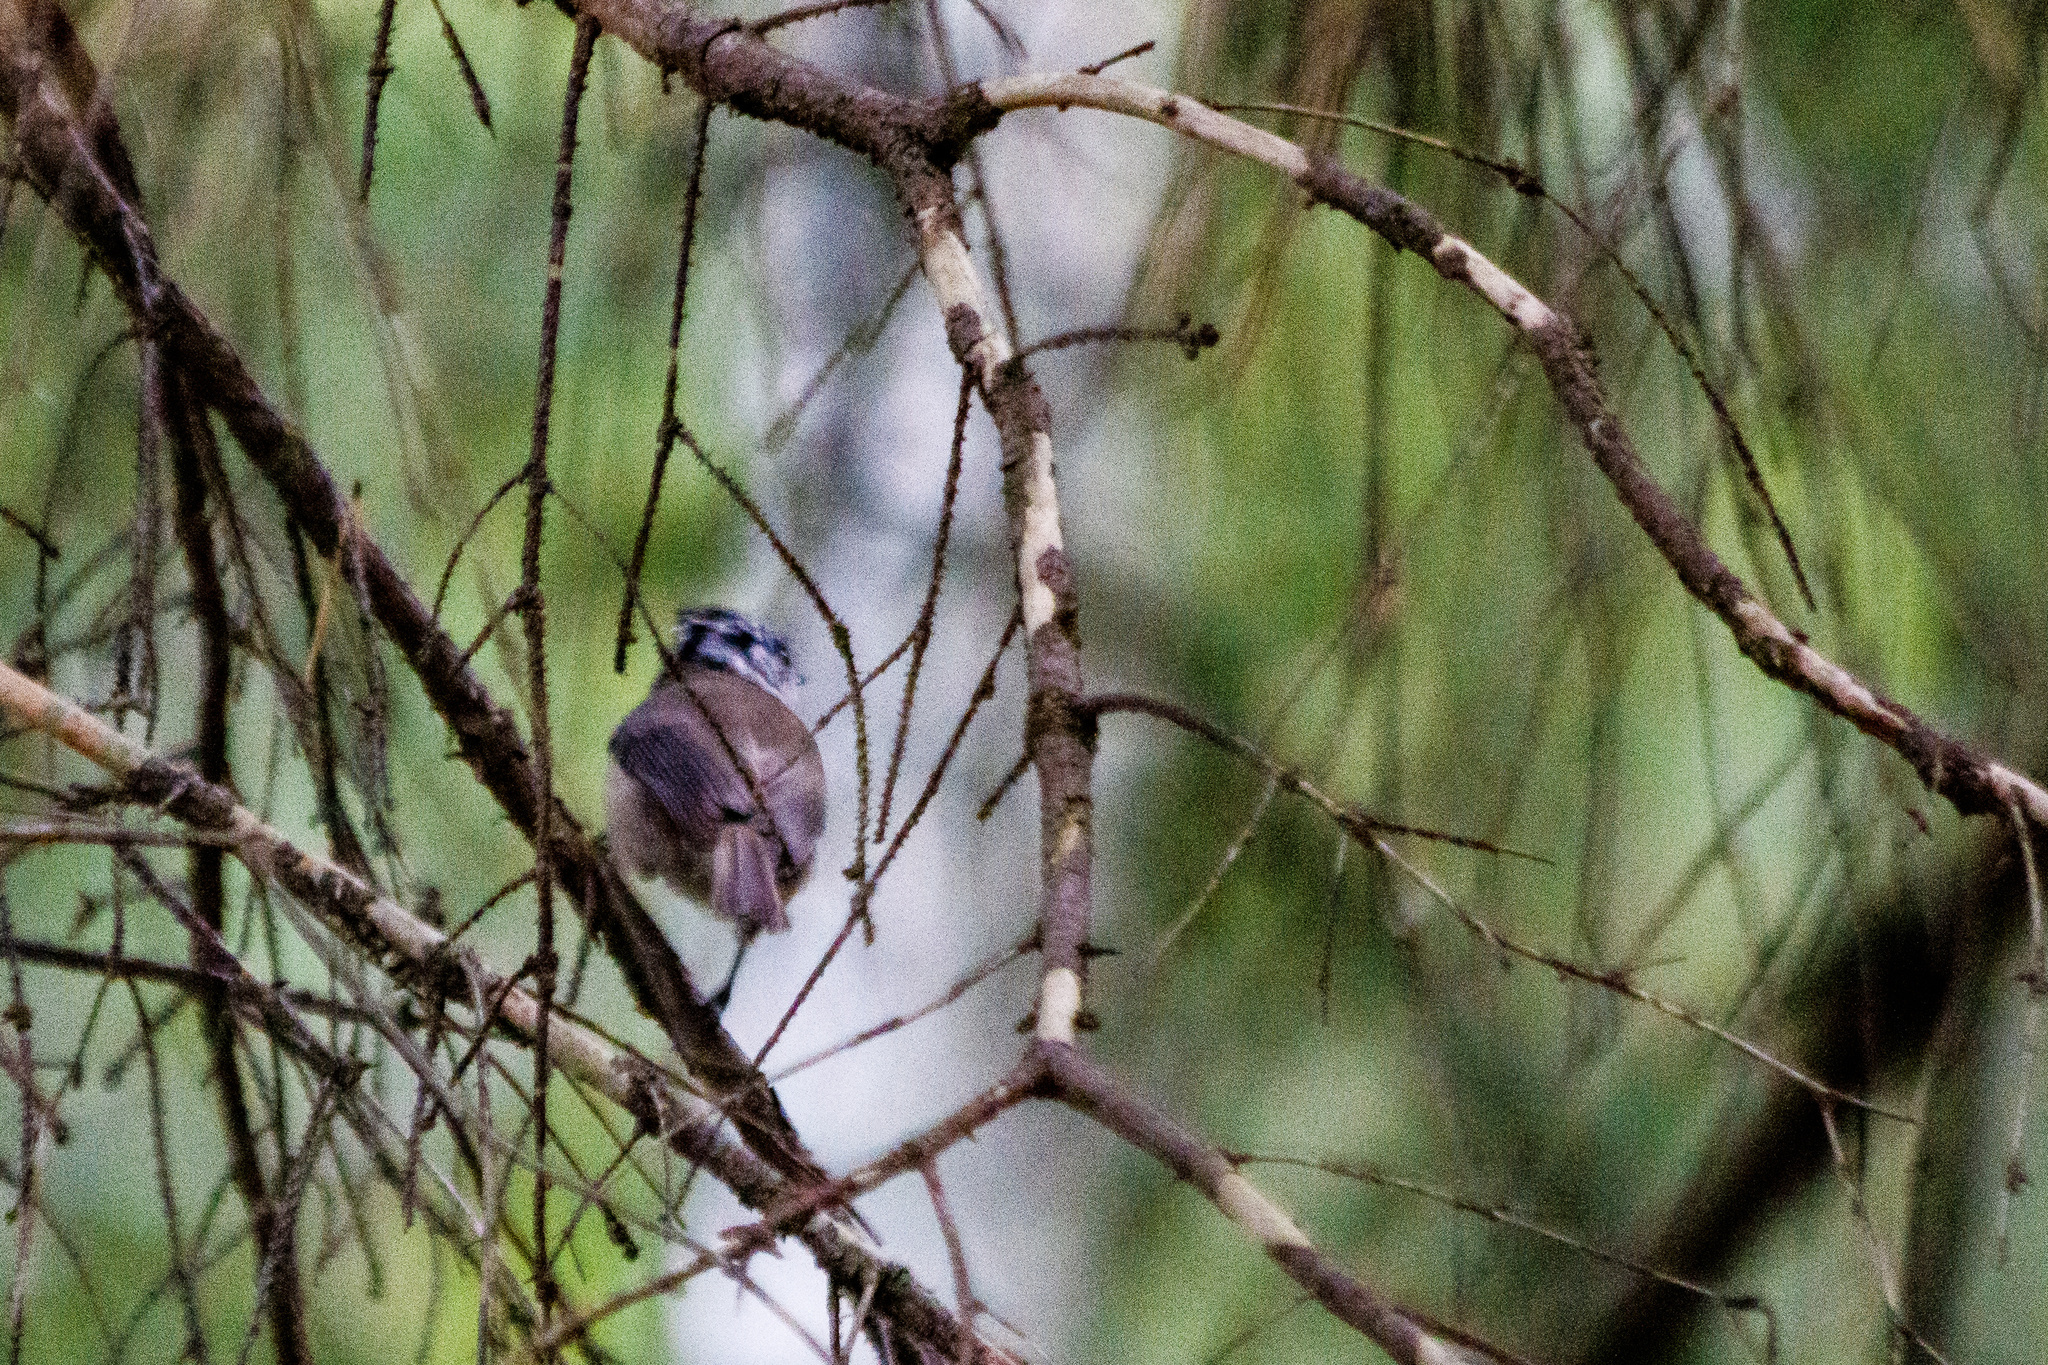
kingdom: Animalia
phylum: Chordata
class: Aves
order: Passeriformes
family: Paridae
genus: Lophophanes
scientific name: Lophophanes cristatus
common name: European crested tit
